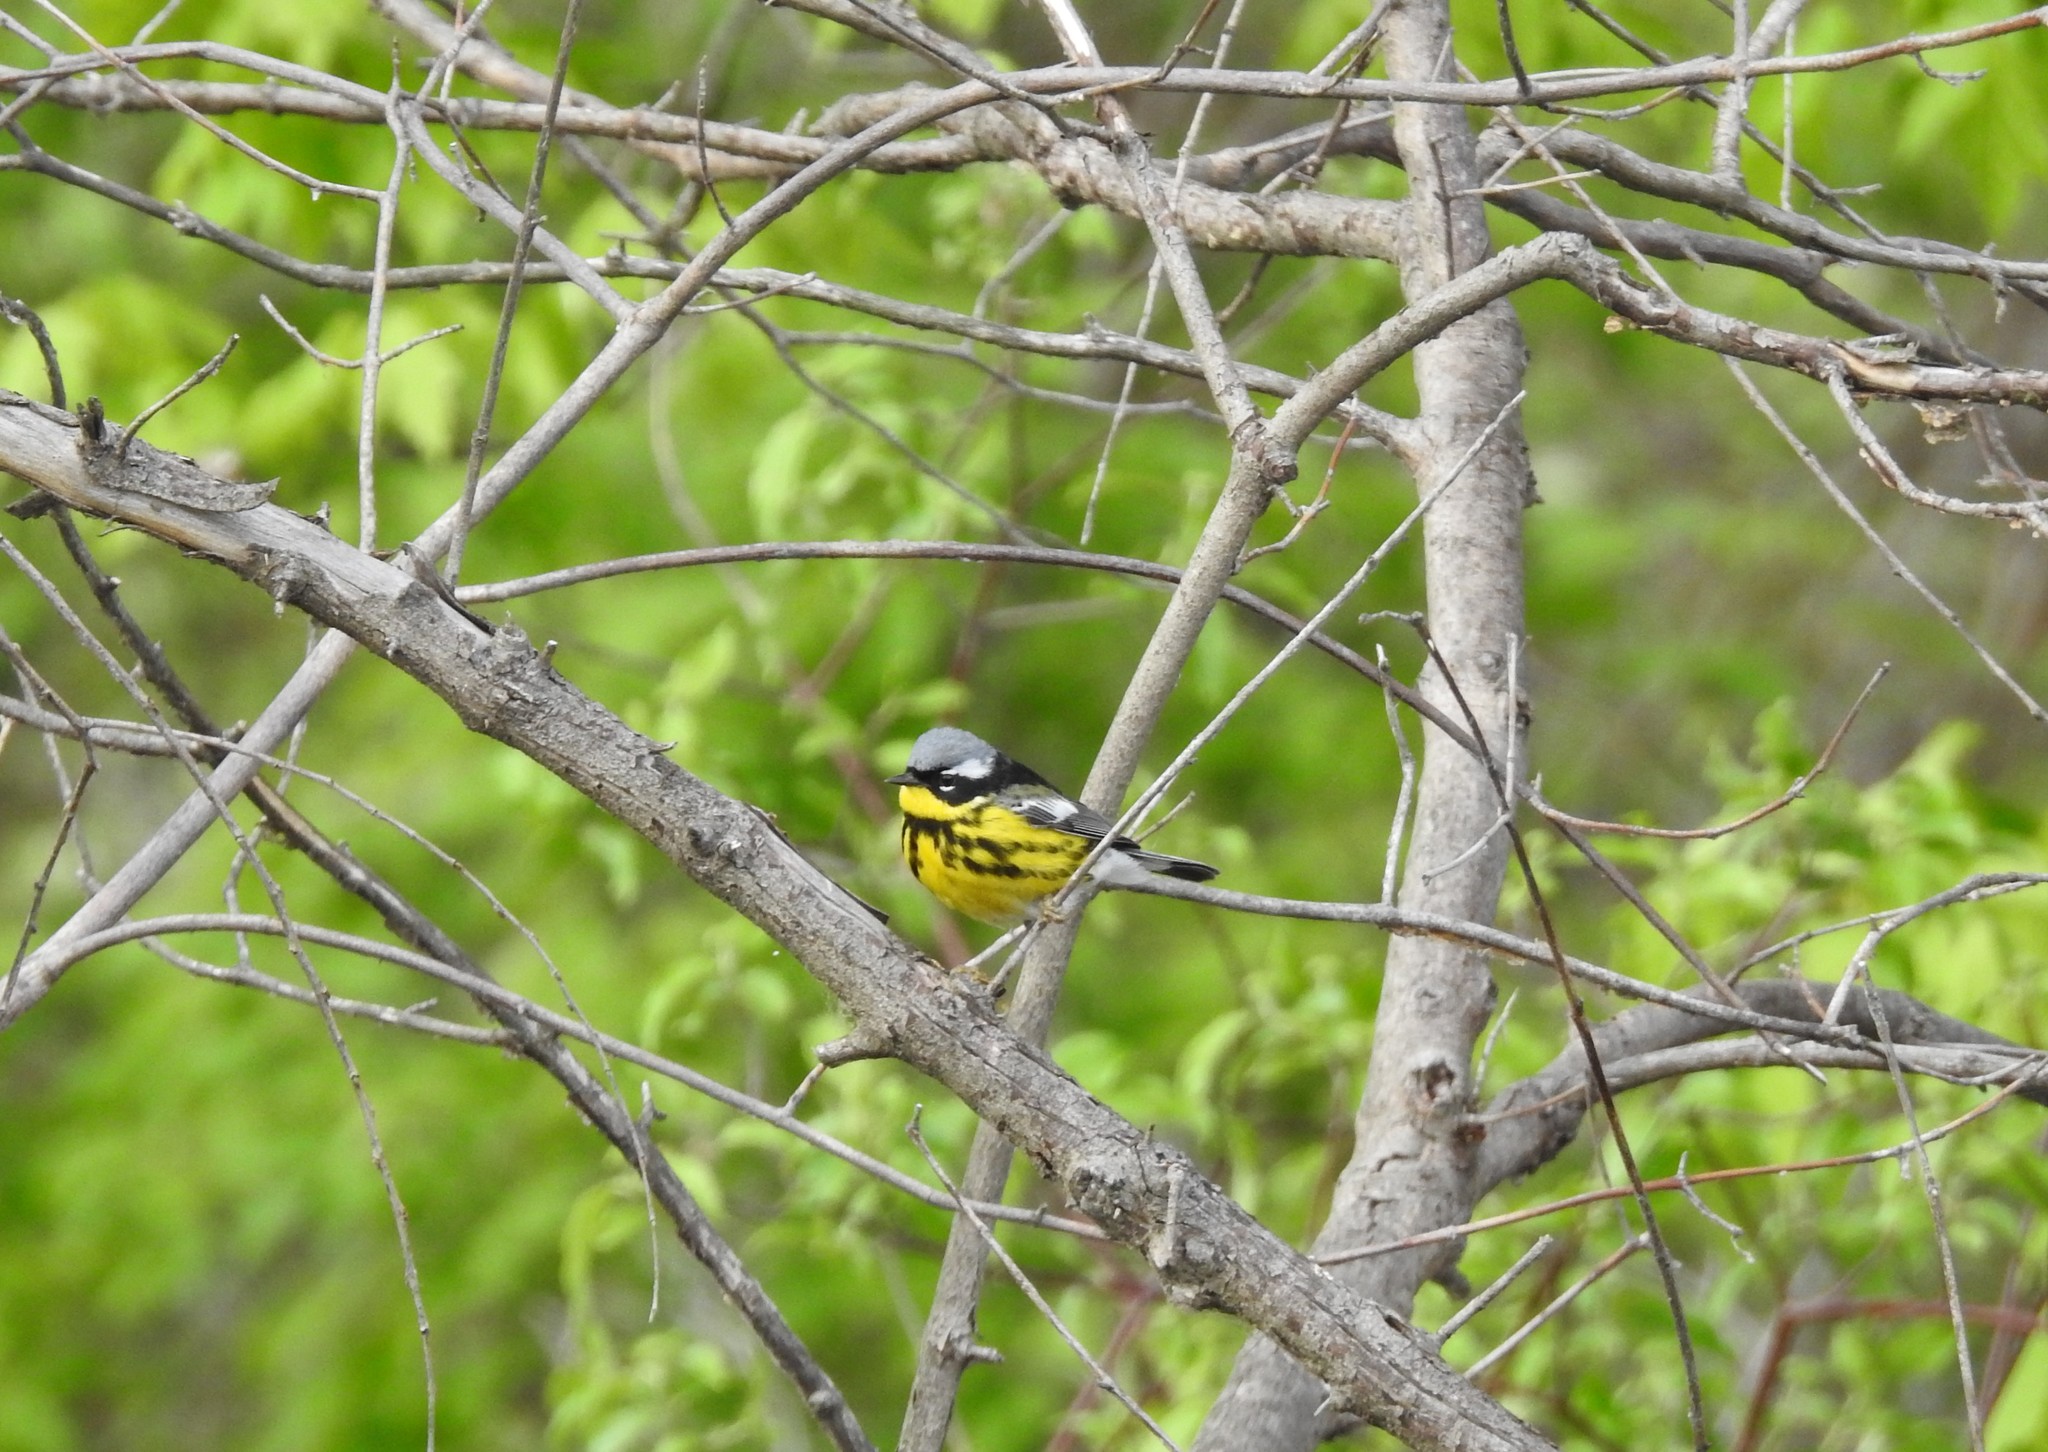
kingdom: Animalia
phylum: Chordata
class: Aves
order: Passeriformes
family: Parulidae
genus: Setophaga
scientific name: Setophaga magnolia
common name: Magnolia warbler
